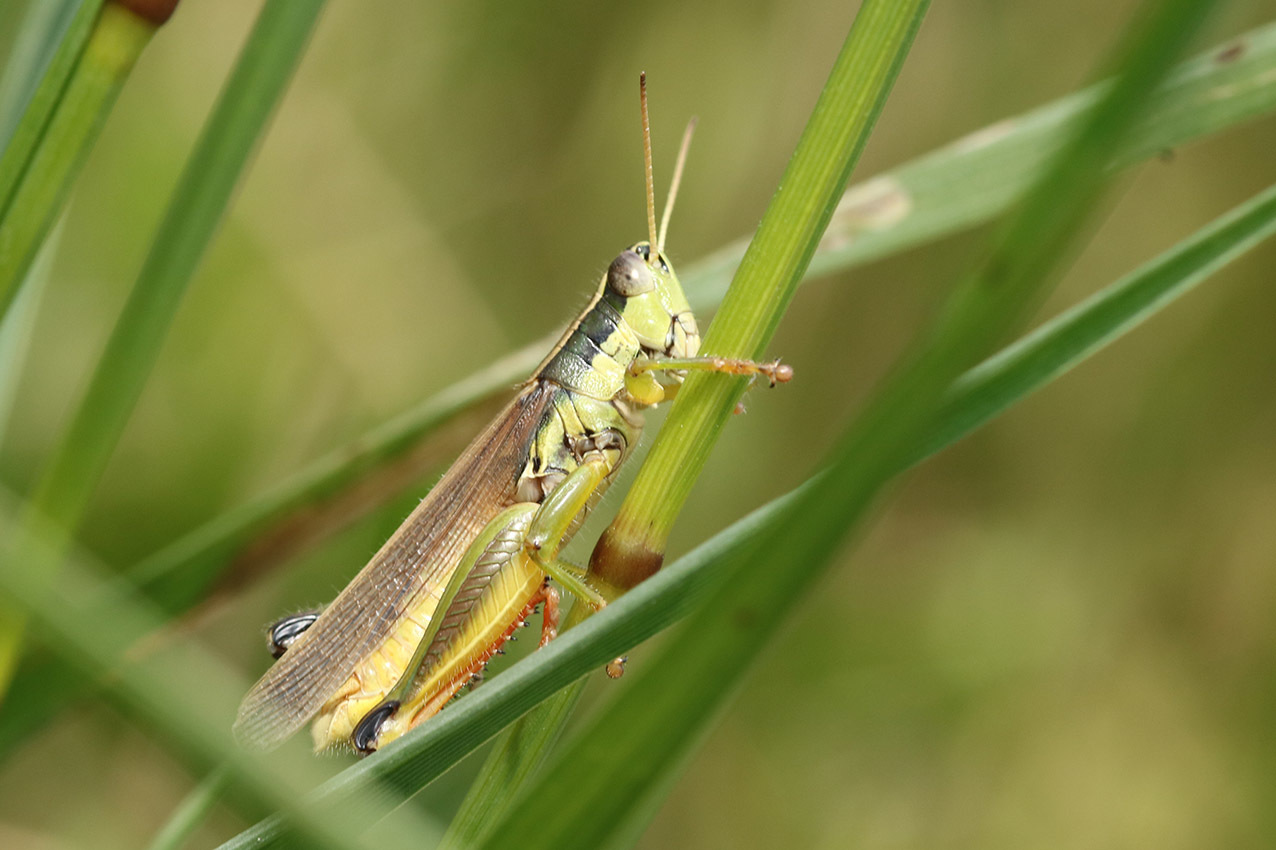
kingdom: Animalia
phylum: Arthropoda
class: Insecta
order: Orthoptera
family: Acrididae
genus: Scotussa
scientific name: Scotussa cliens
